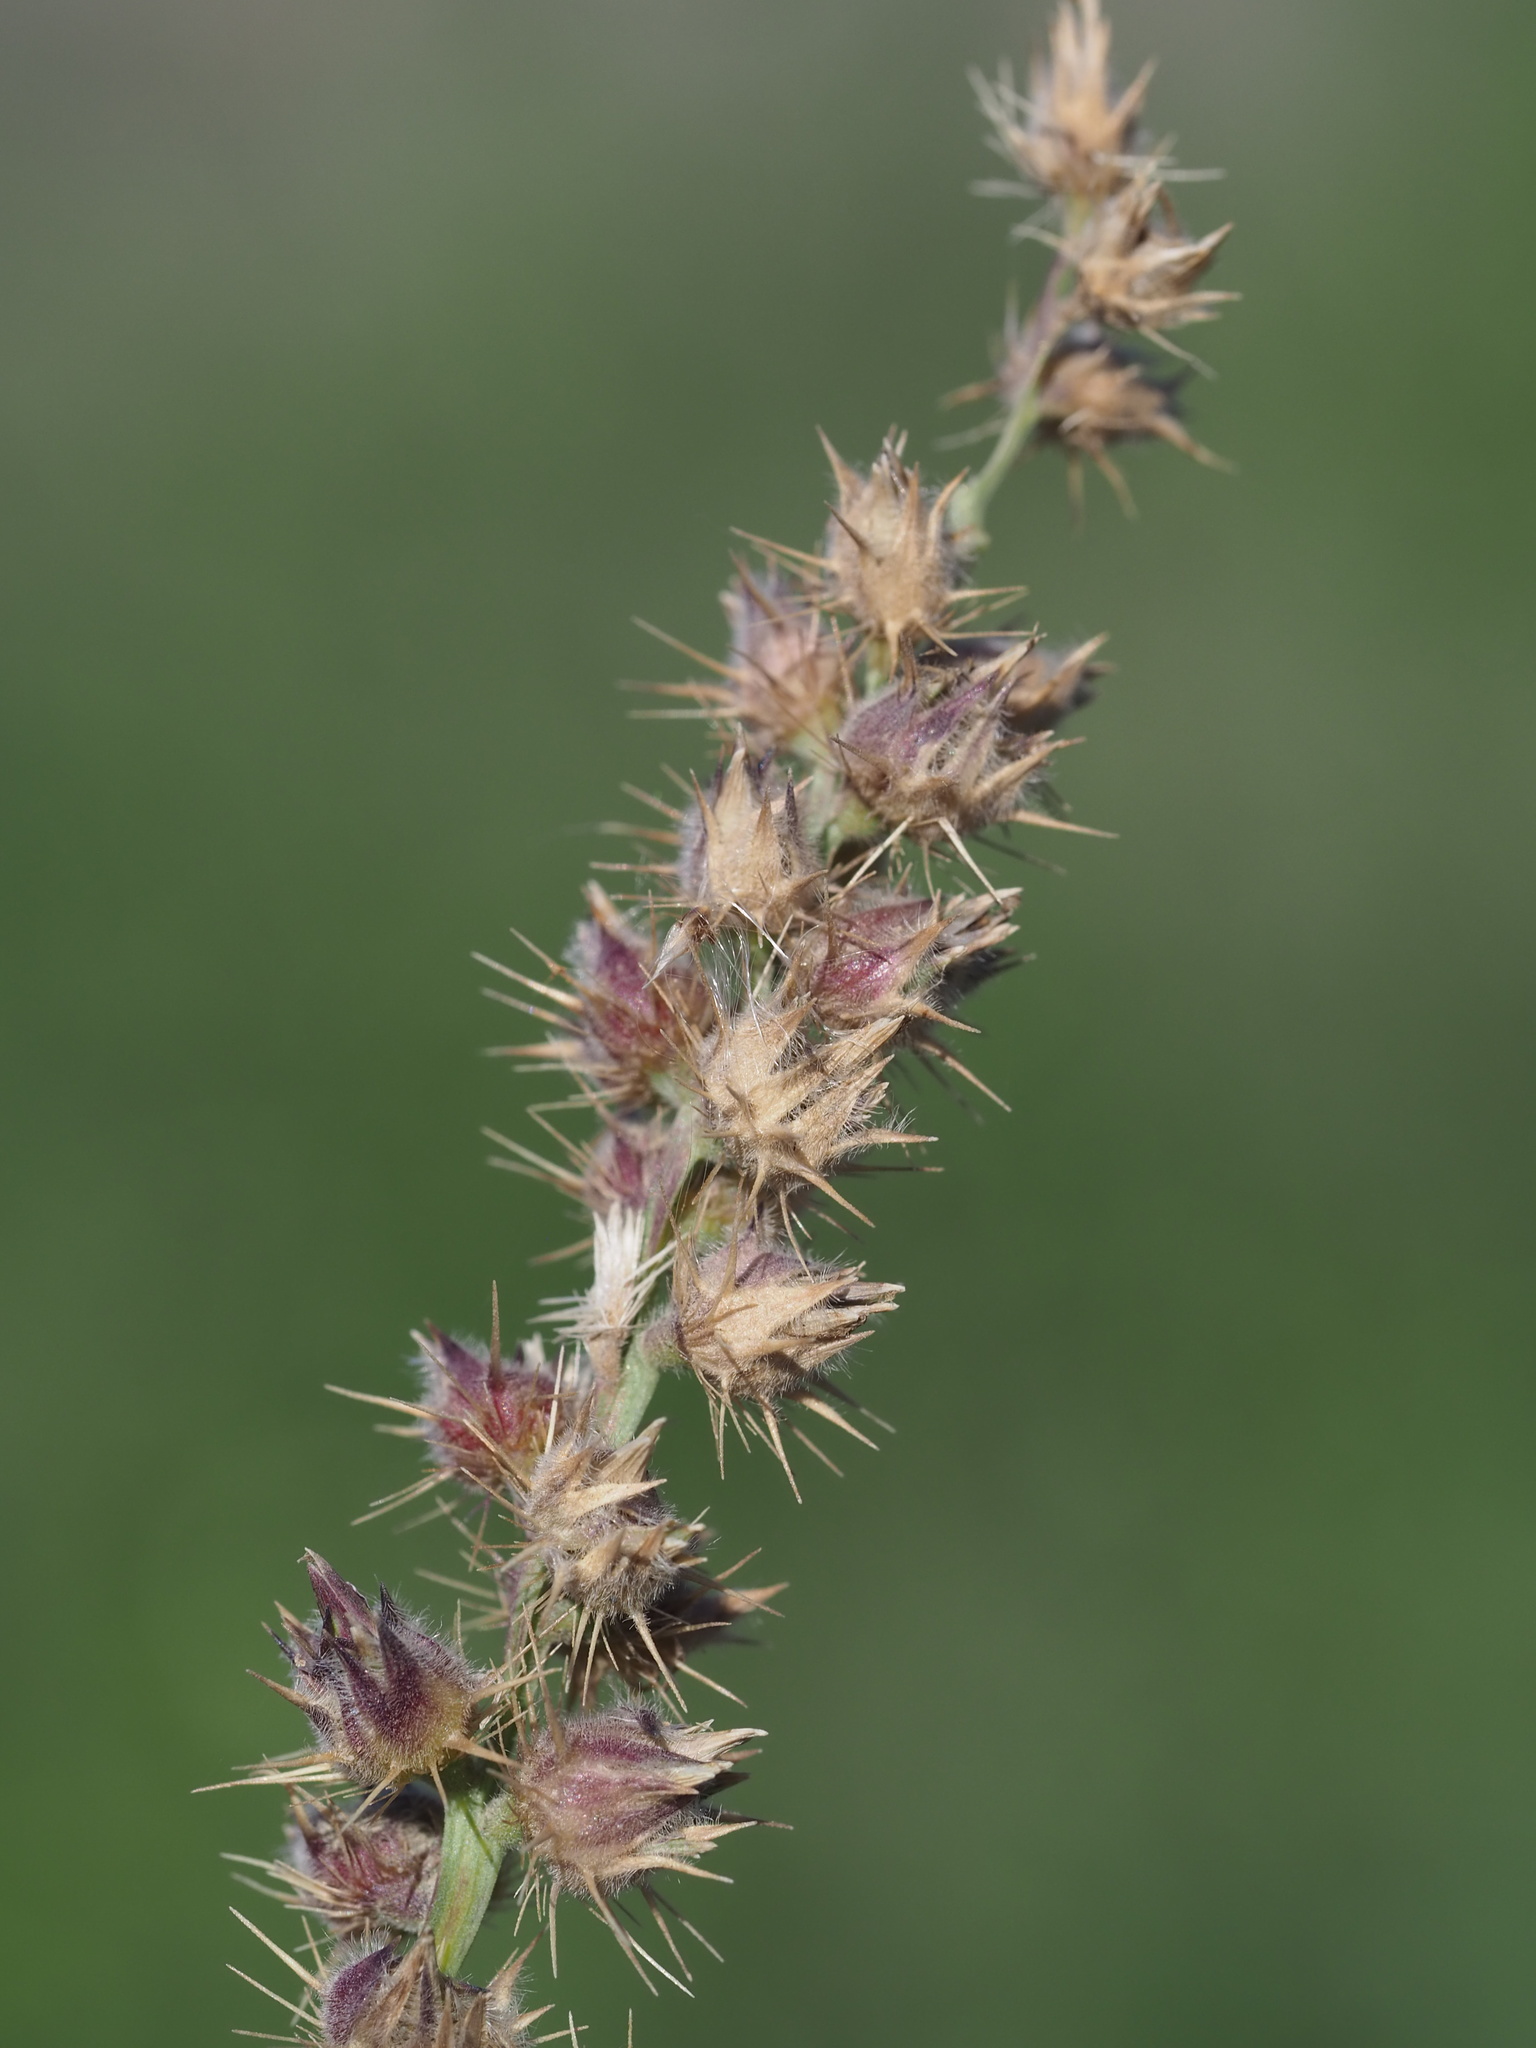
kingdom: Plantae
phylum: Tracheophyta
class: Liliopsida
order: Poales
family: Poaceae
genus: Cenchrus
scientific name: Cenchrus echinatus
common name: Southern sandbur
